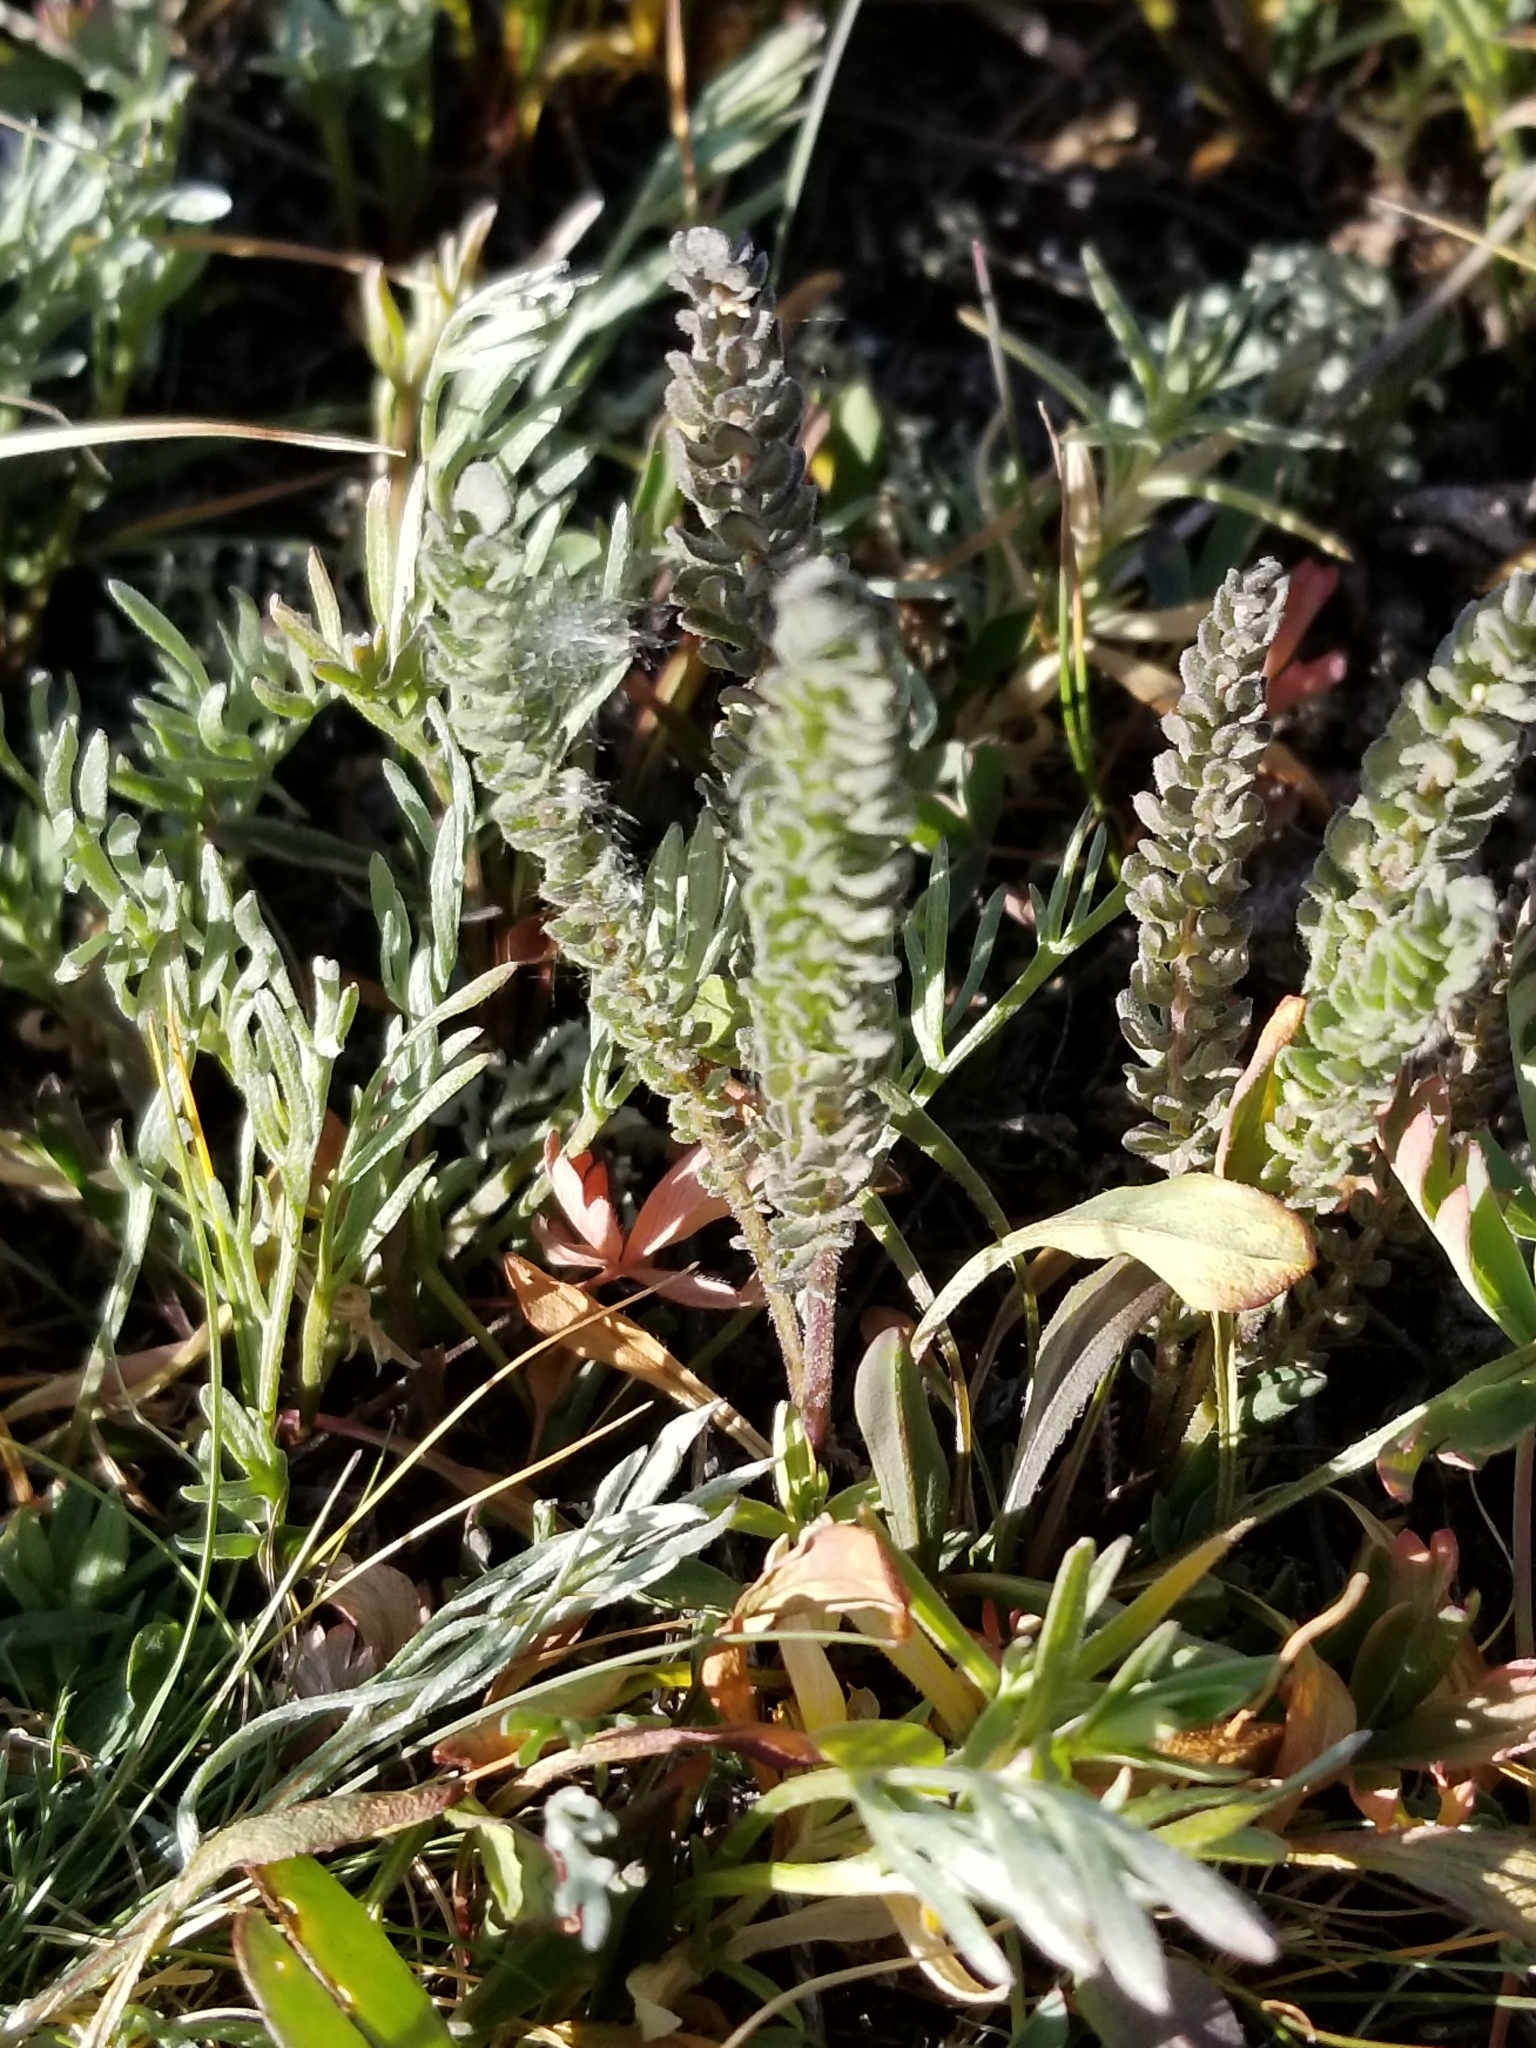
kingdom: Plantae
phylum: Tracheophyta
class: Magnoliopsida
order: Ericales
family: Polemoniaceae
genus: Polemonium
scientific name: Polemonium viscosum
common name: Skunk jacob's-ladder
